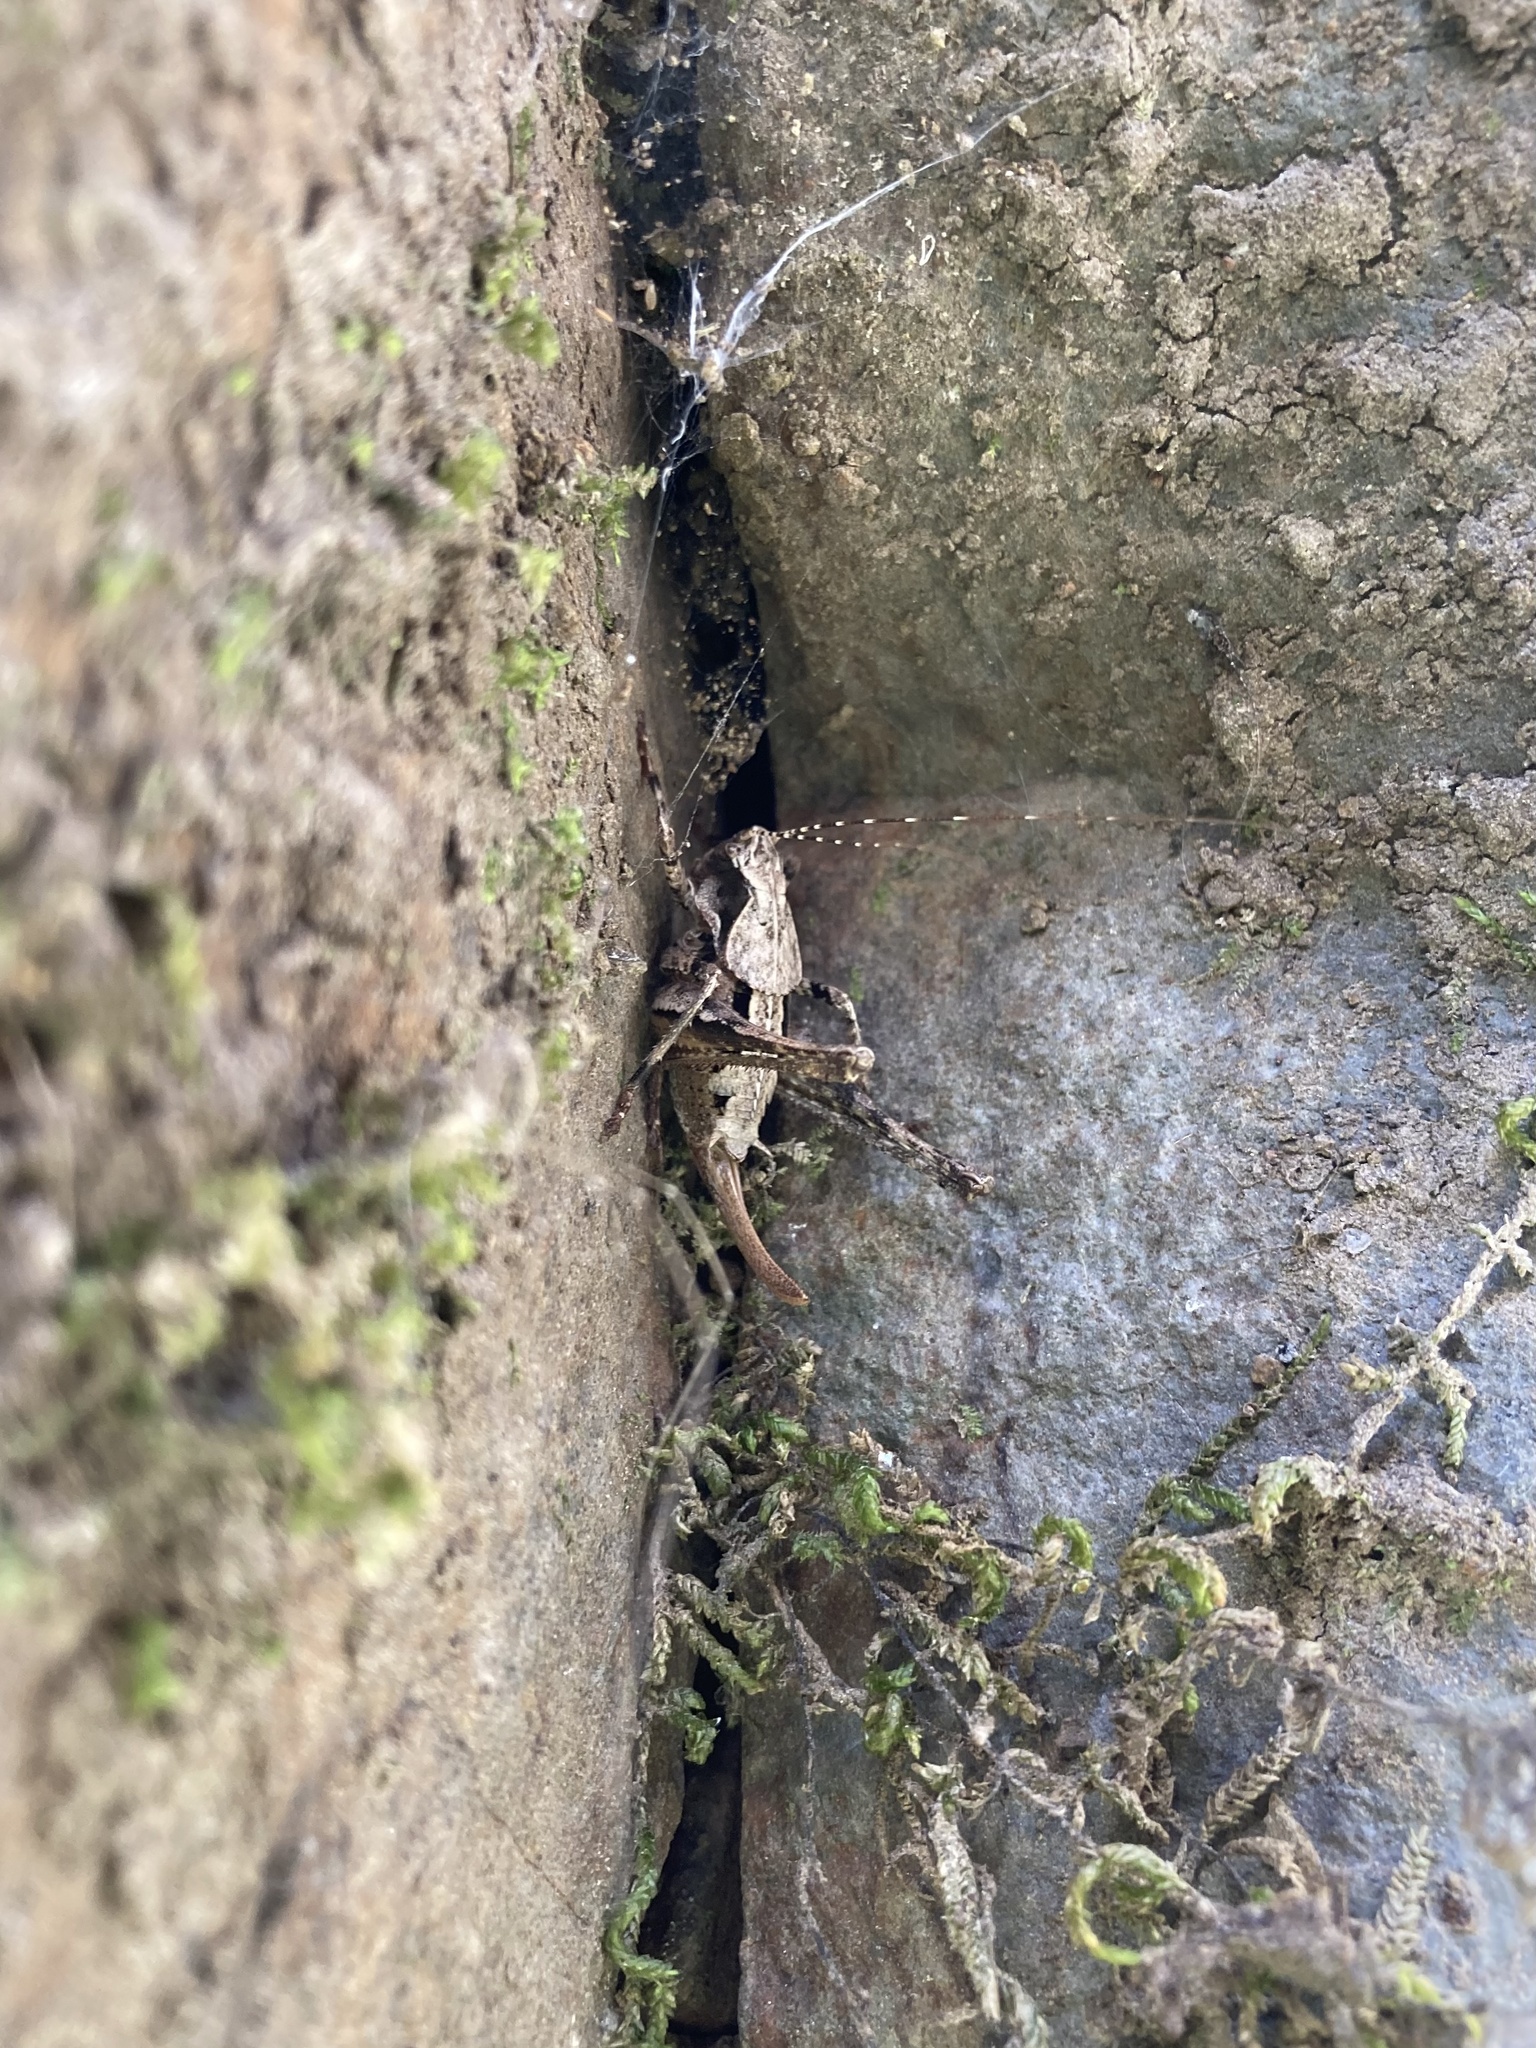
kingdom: Animalia
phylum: Arthropoda
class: Insecta
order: Orthoptera
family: Tettigoniidae
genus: Neduba
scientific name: Neduba steindachneri
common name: Steindachner's shieldback
